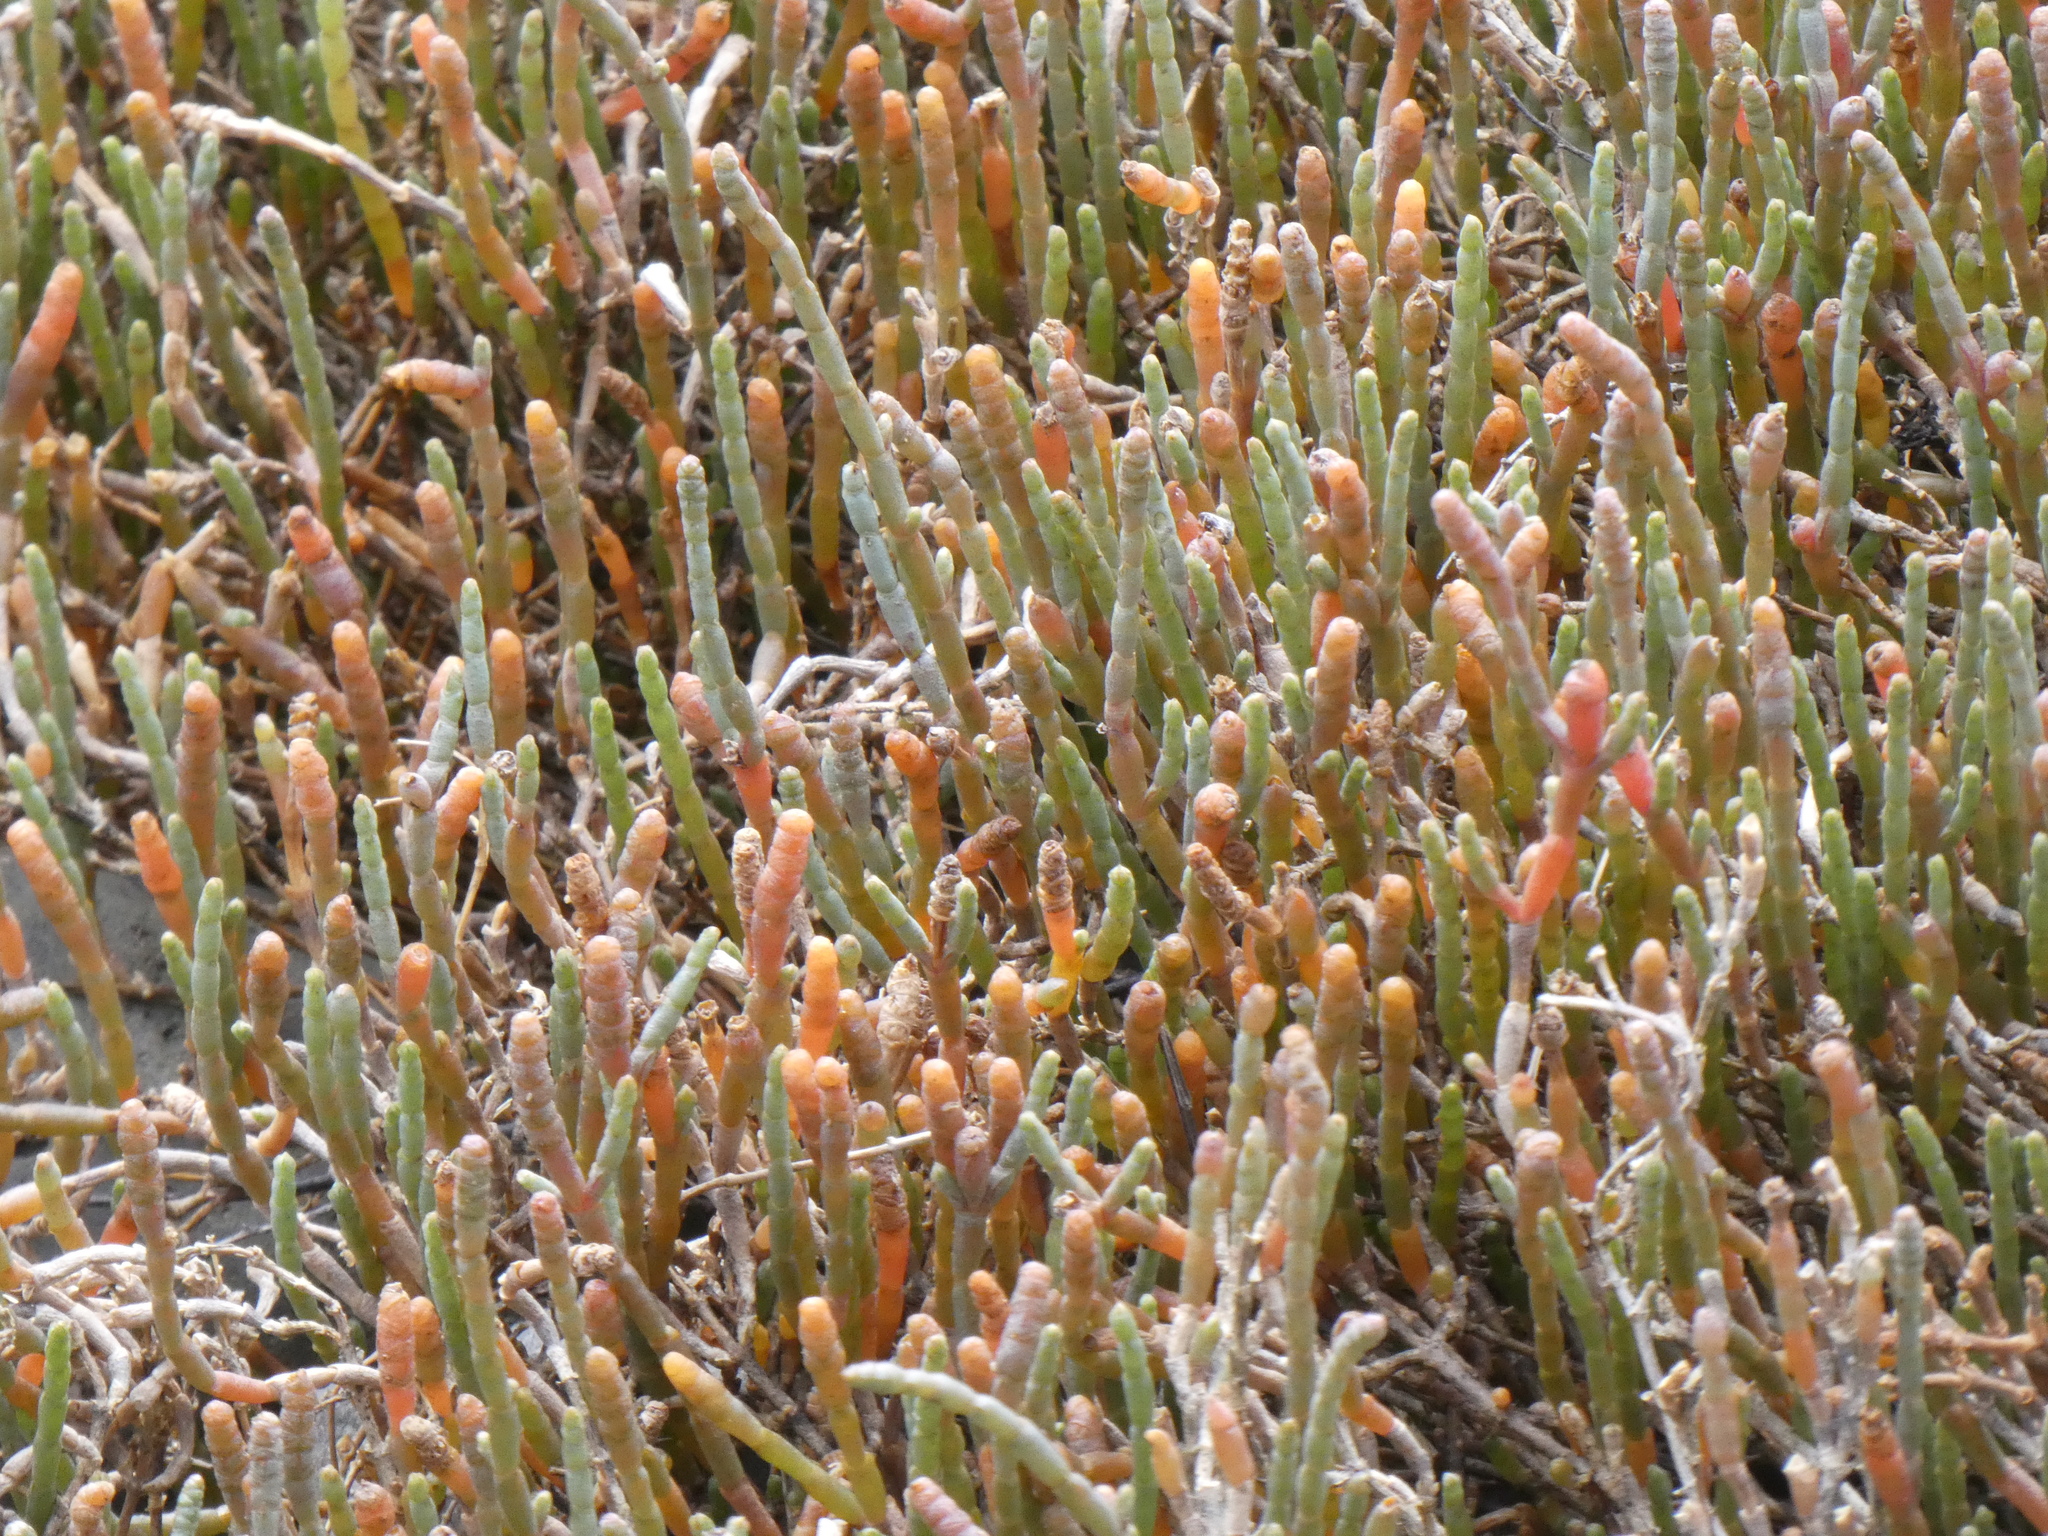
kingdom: Plantae
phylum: Tracheophyta
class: Magnoliopsida
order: Caryophyllales
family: Amaranthaceae
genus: Salicornia
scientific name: Salicornia quinqueflora
